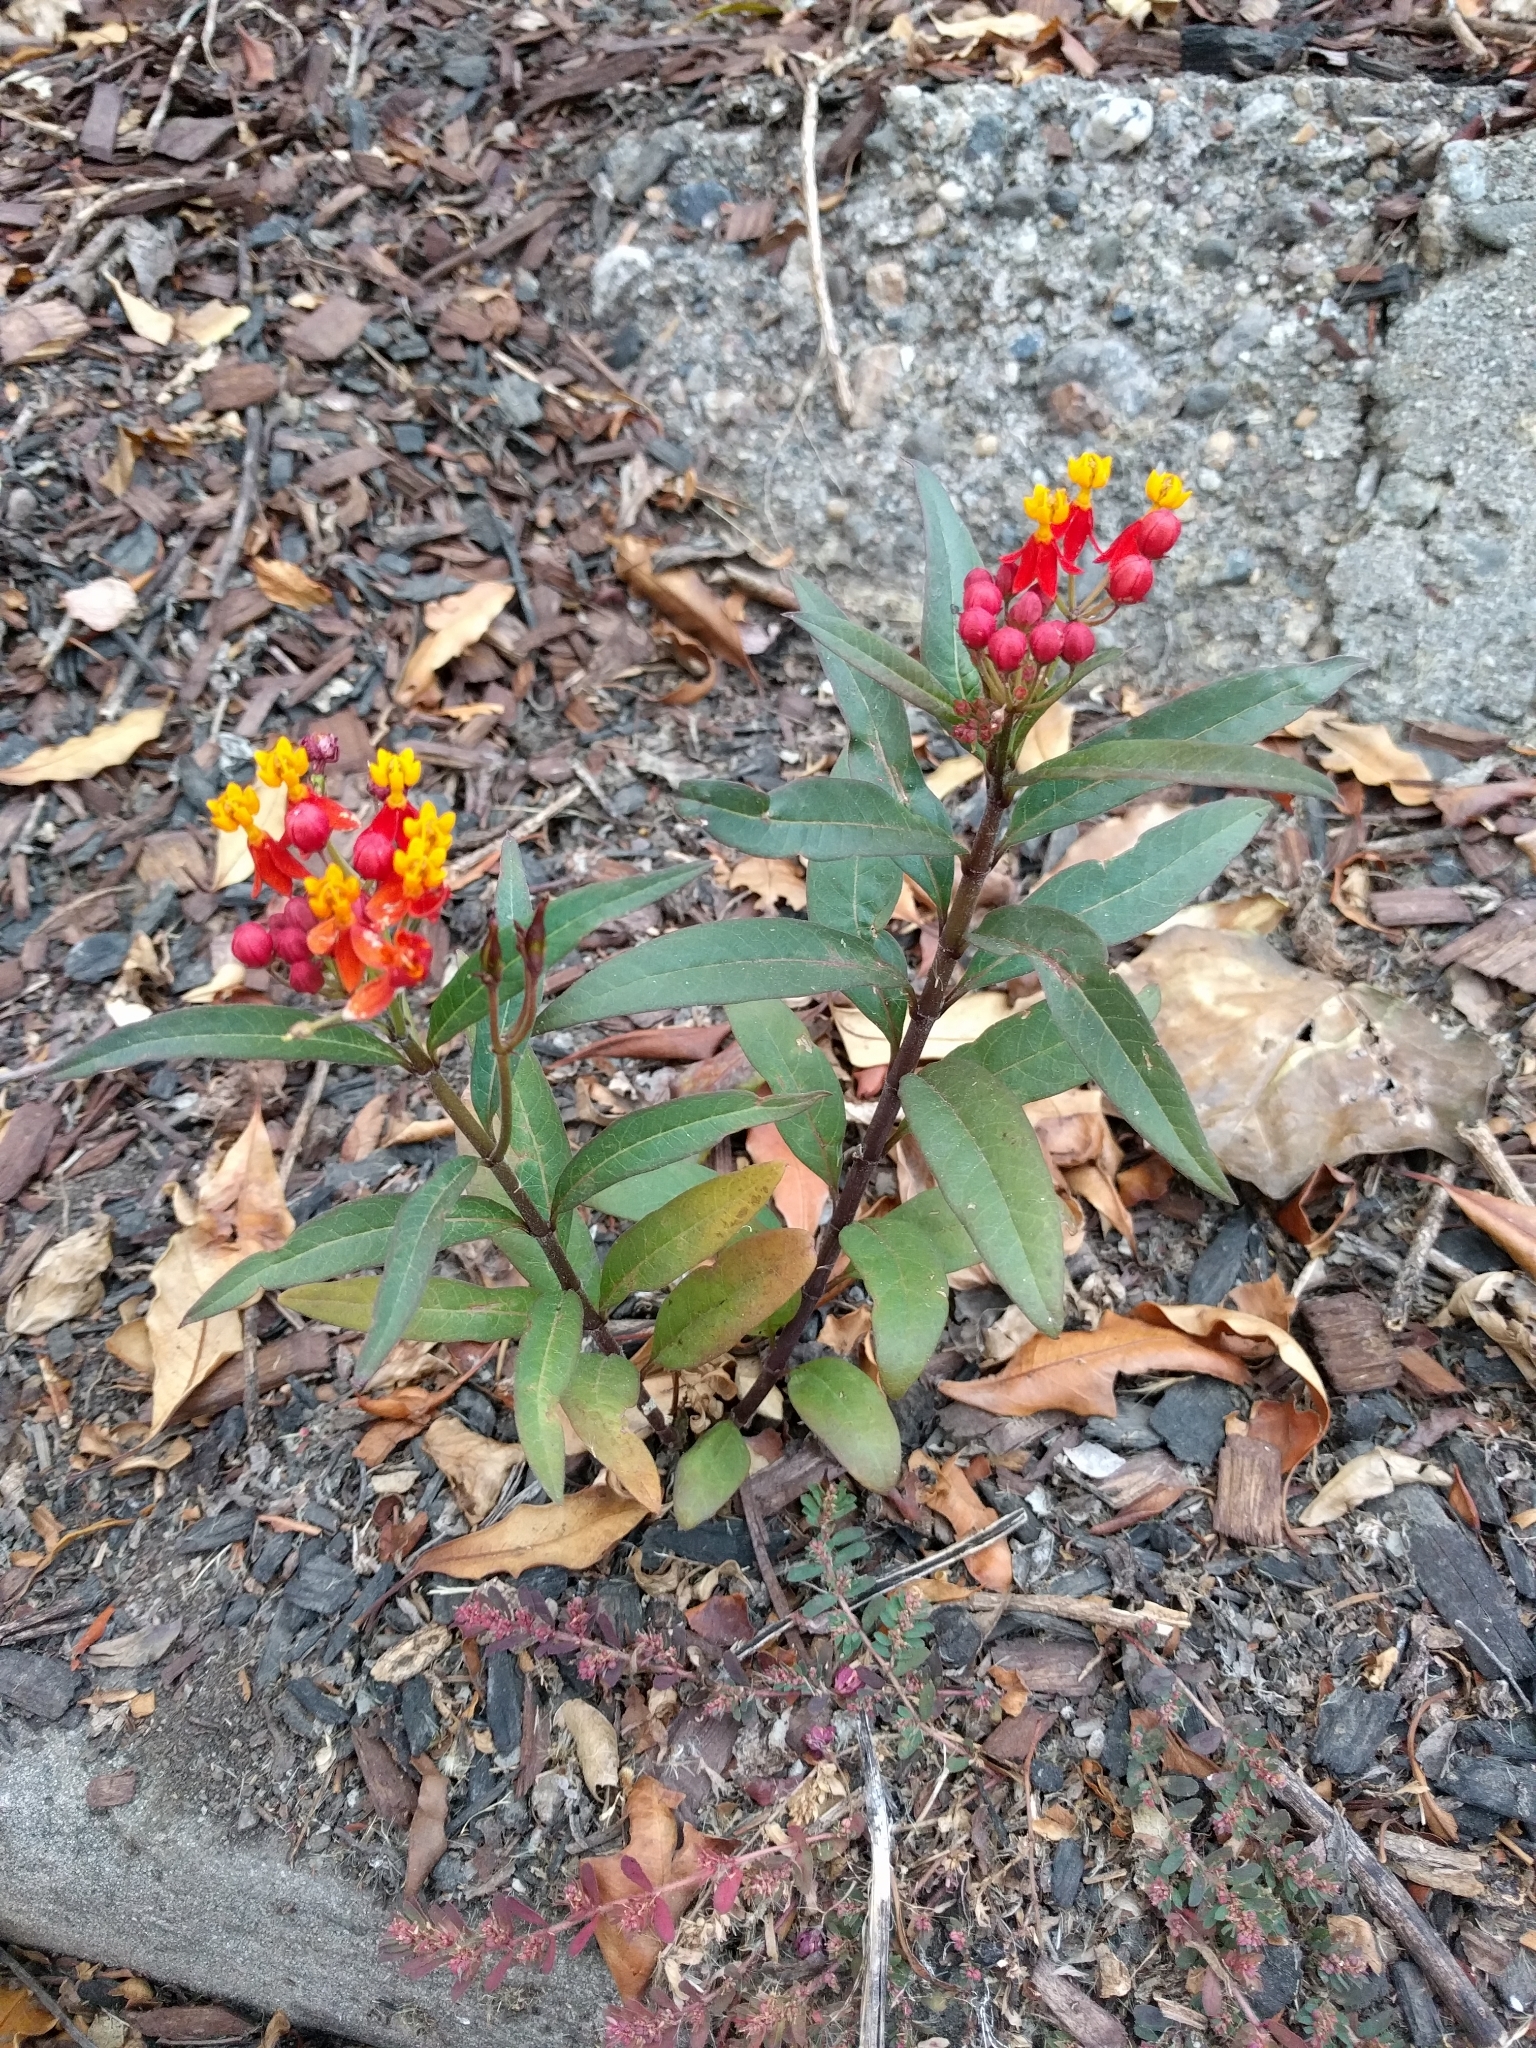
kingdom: Plantae
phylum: Tracheophyta
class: Magnoliopsida
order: Gentianales
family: Apocynaceae
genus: Asclepias
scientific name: Asclepias curassavica
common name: Bloodflower
